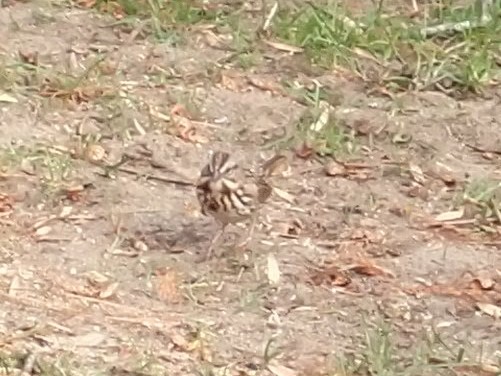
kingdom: Animalia
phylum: Chordata
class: Aves
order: Passeriformes
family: Passerellidae
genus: Melospiza
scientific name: Melospiza melodia
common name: Song sparrow
